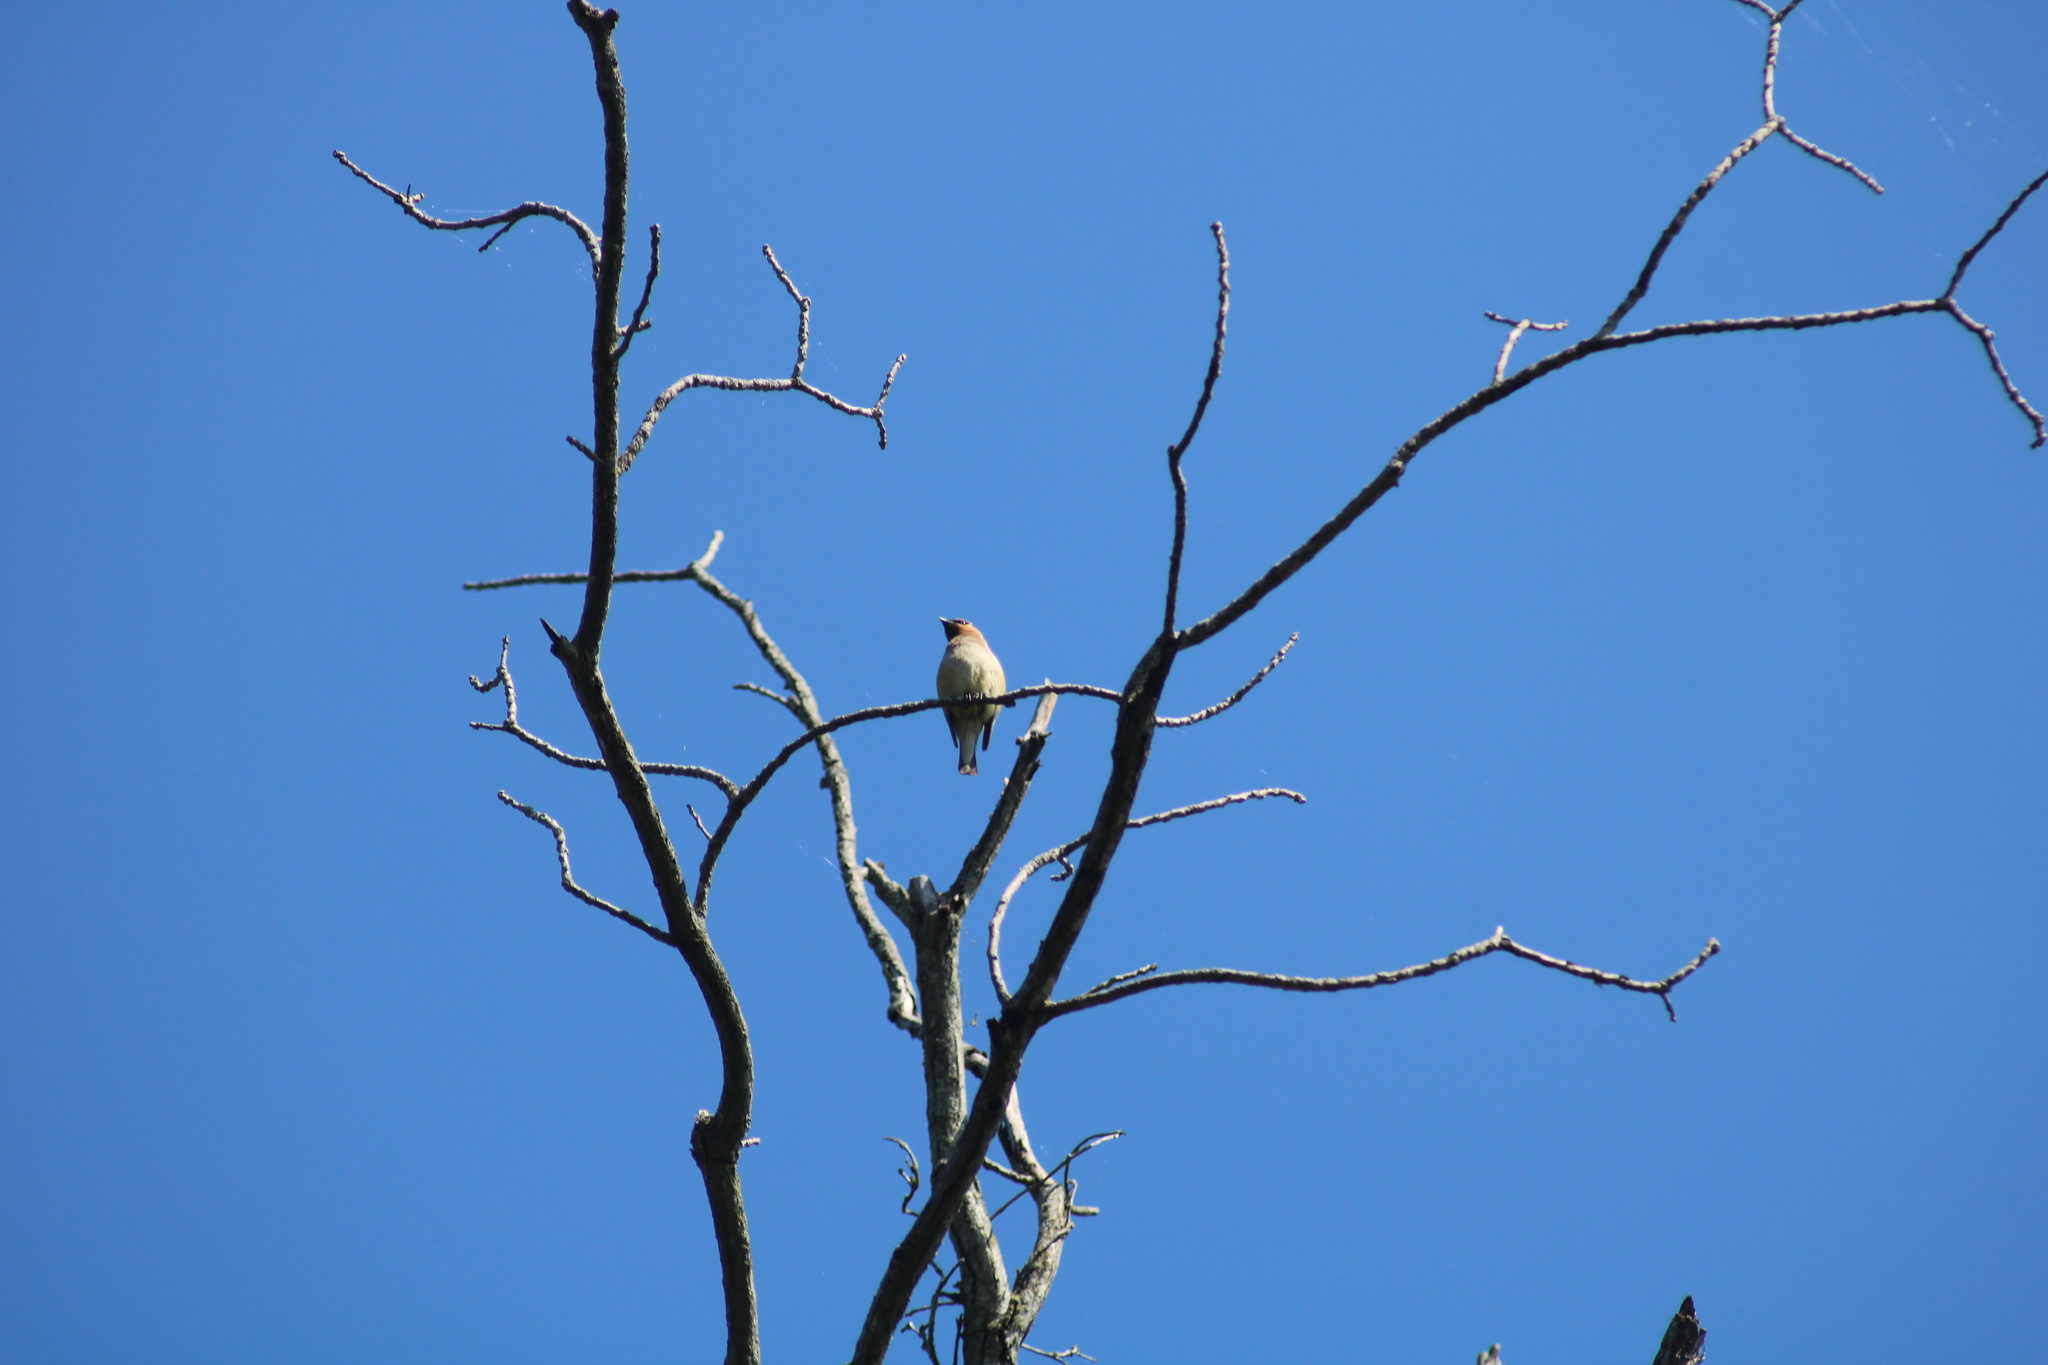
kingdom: Animalia
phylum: Chordata
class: Aves
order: Passeriformes
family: Bombycillidae
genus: Bombycilla
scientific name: Bombycilla cedrorum
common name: Cedar waxwing
